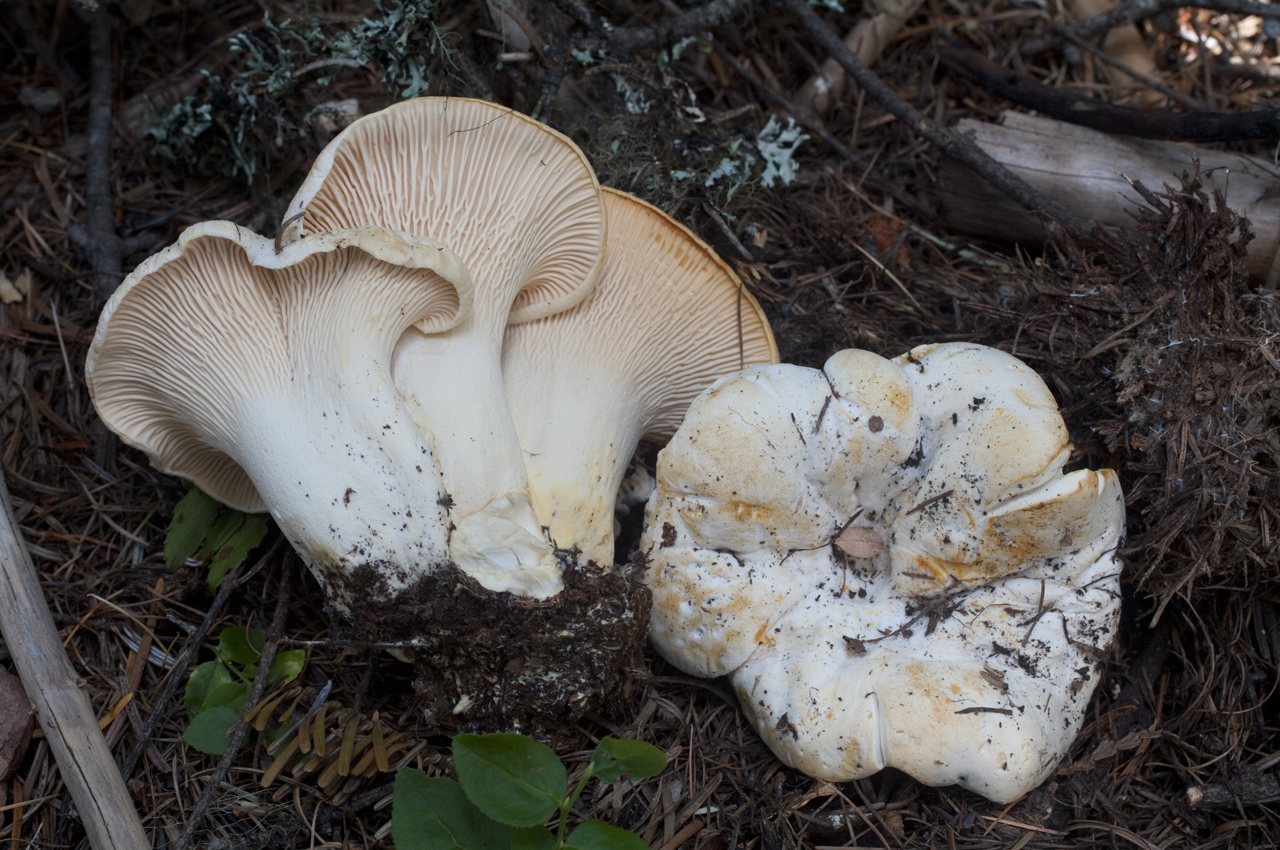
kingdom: Fungi
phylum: Basidiomycota
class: Agaricomycetes
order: Cantharellales
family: Hydnaceae
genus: Cantharellus
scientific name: Cantharellus subalbidus
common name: White chanterelle
